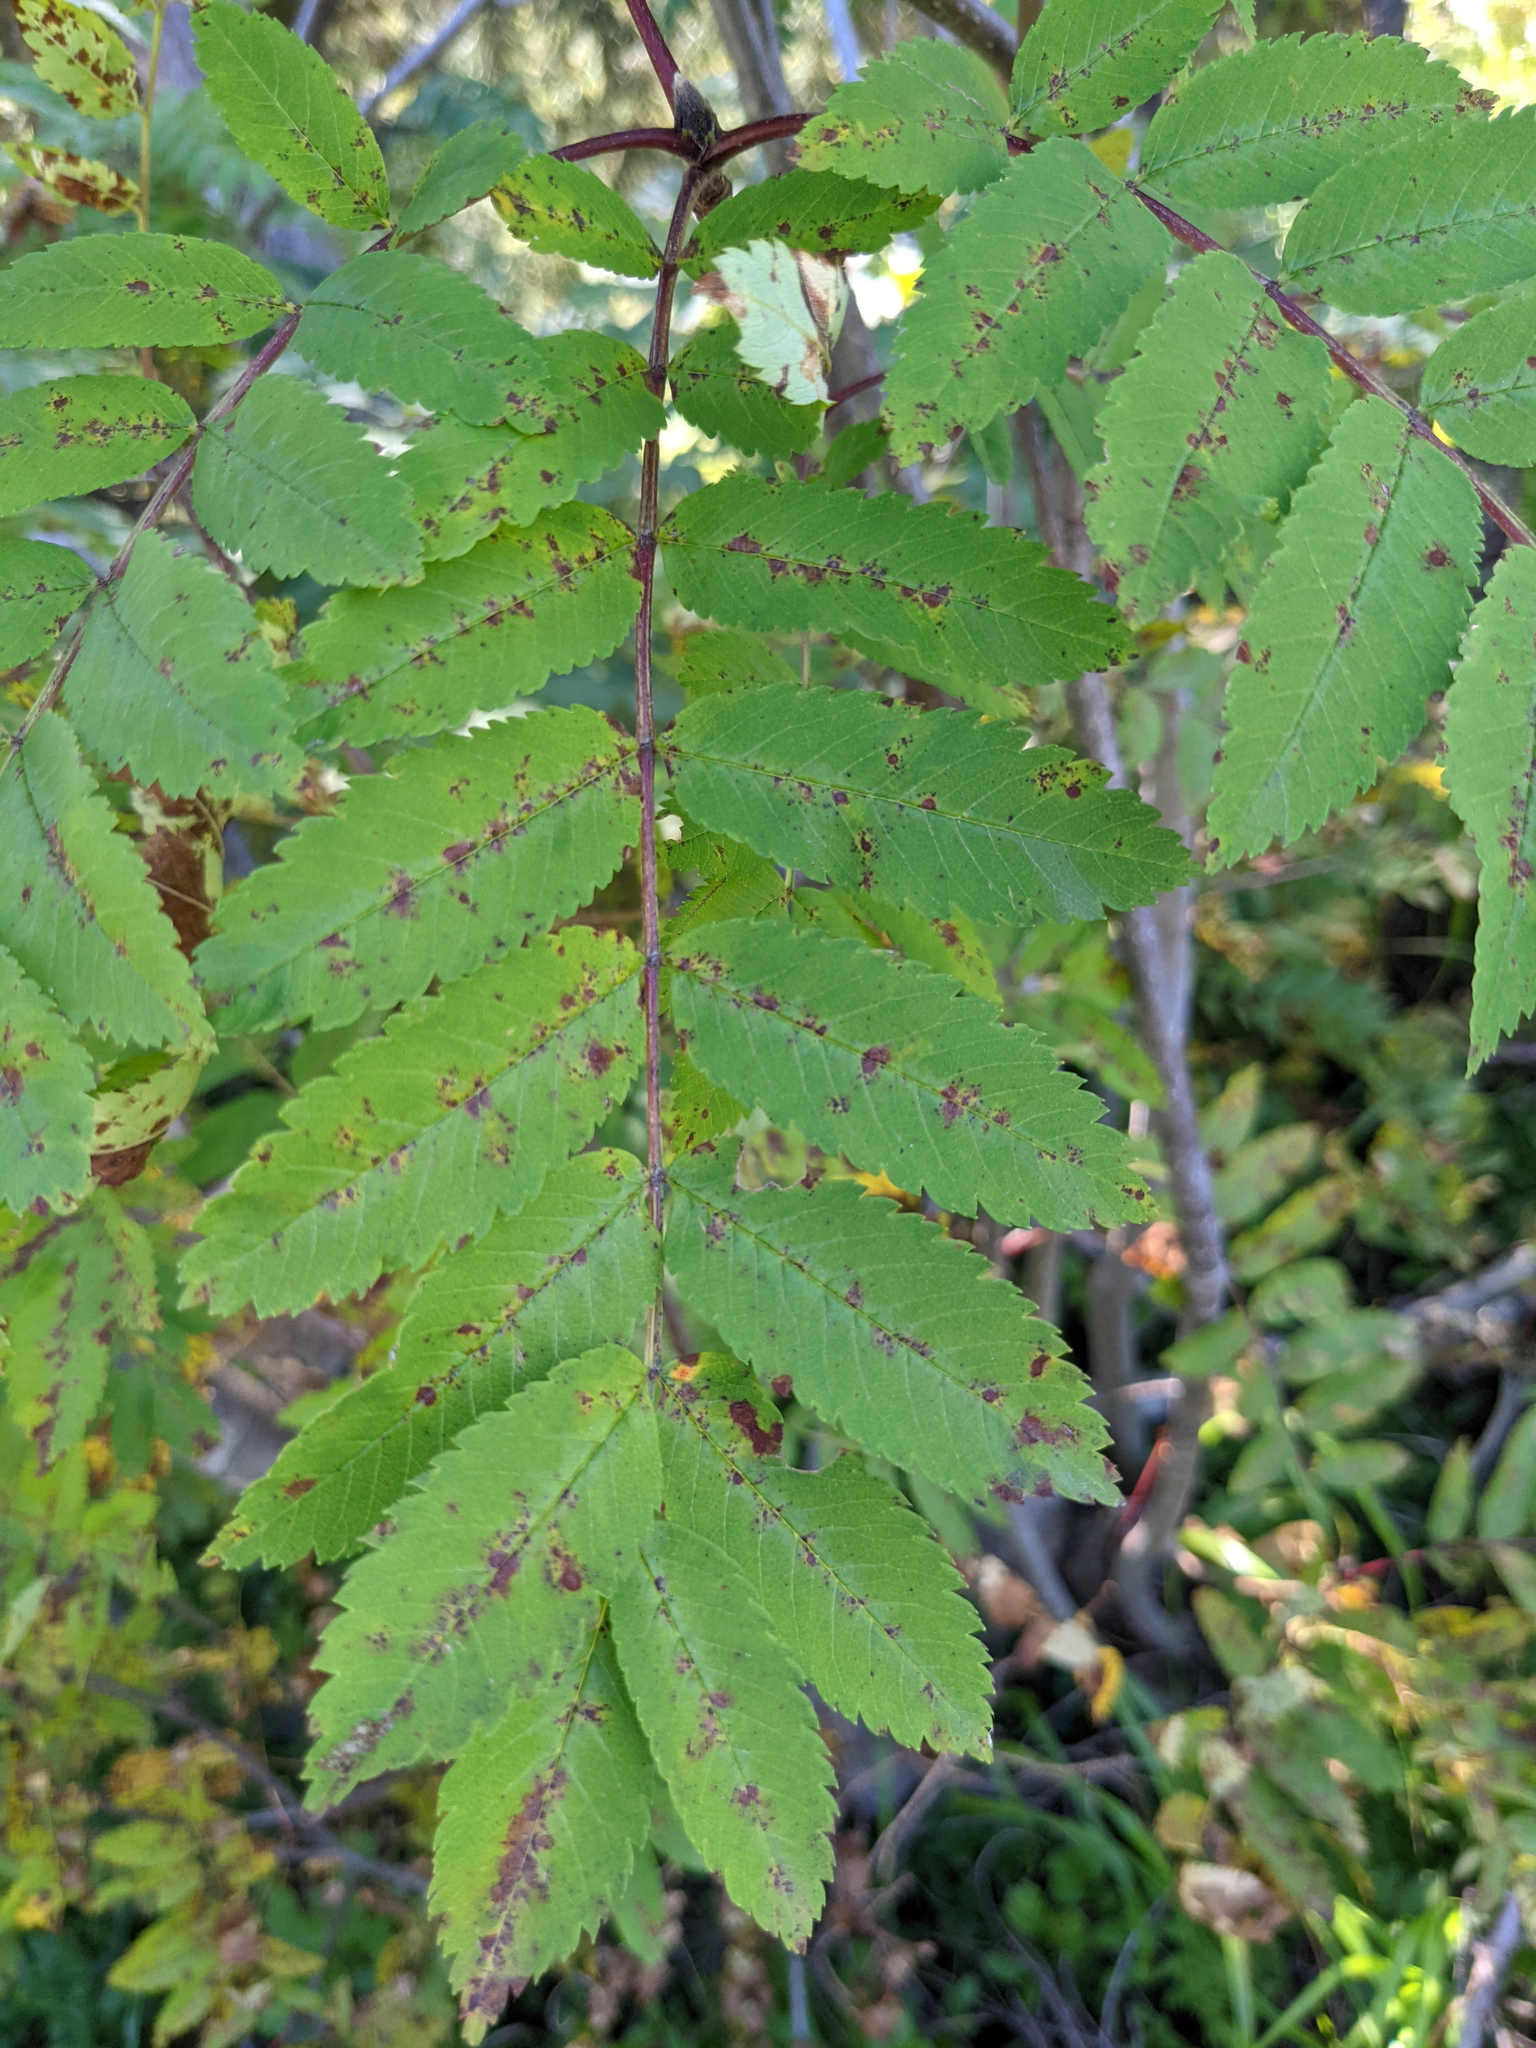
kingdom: Plantae
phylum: Tracheophyta
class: Magnoliopsida
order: Rosales
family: Rosaceae
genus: Sorbus
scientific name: Sorbus aucuparia
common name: Rowan
